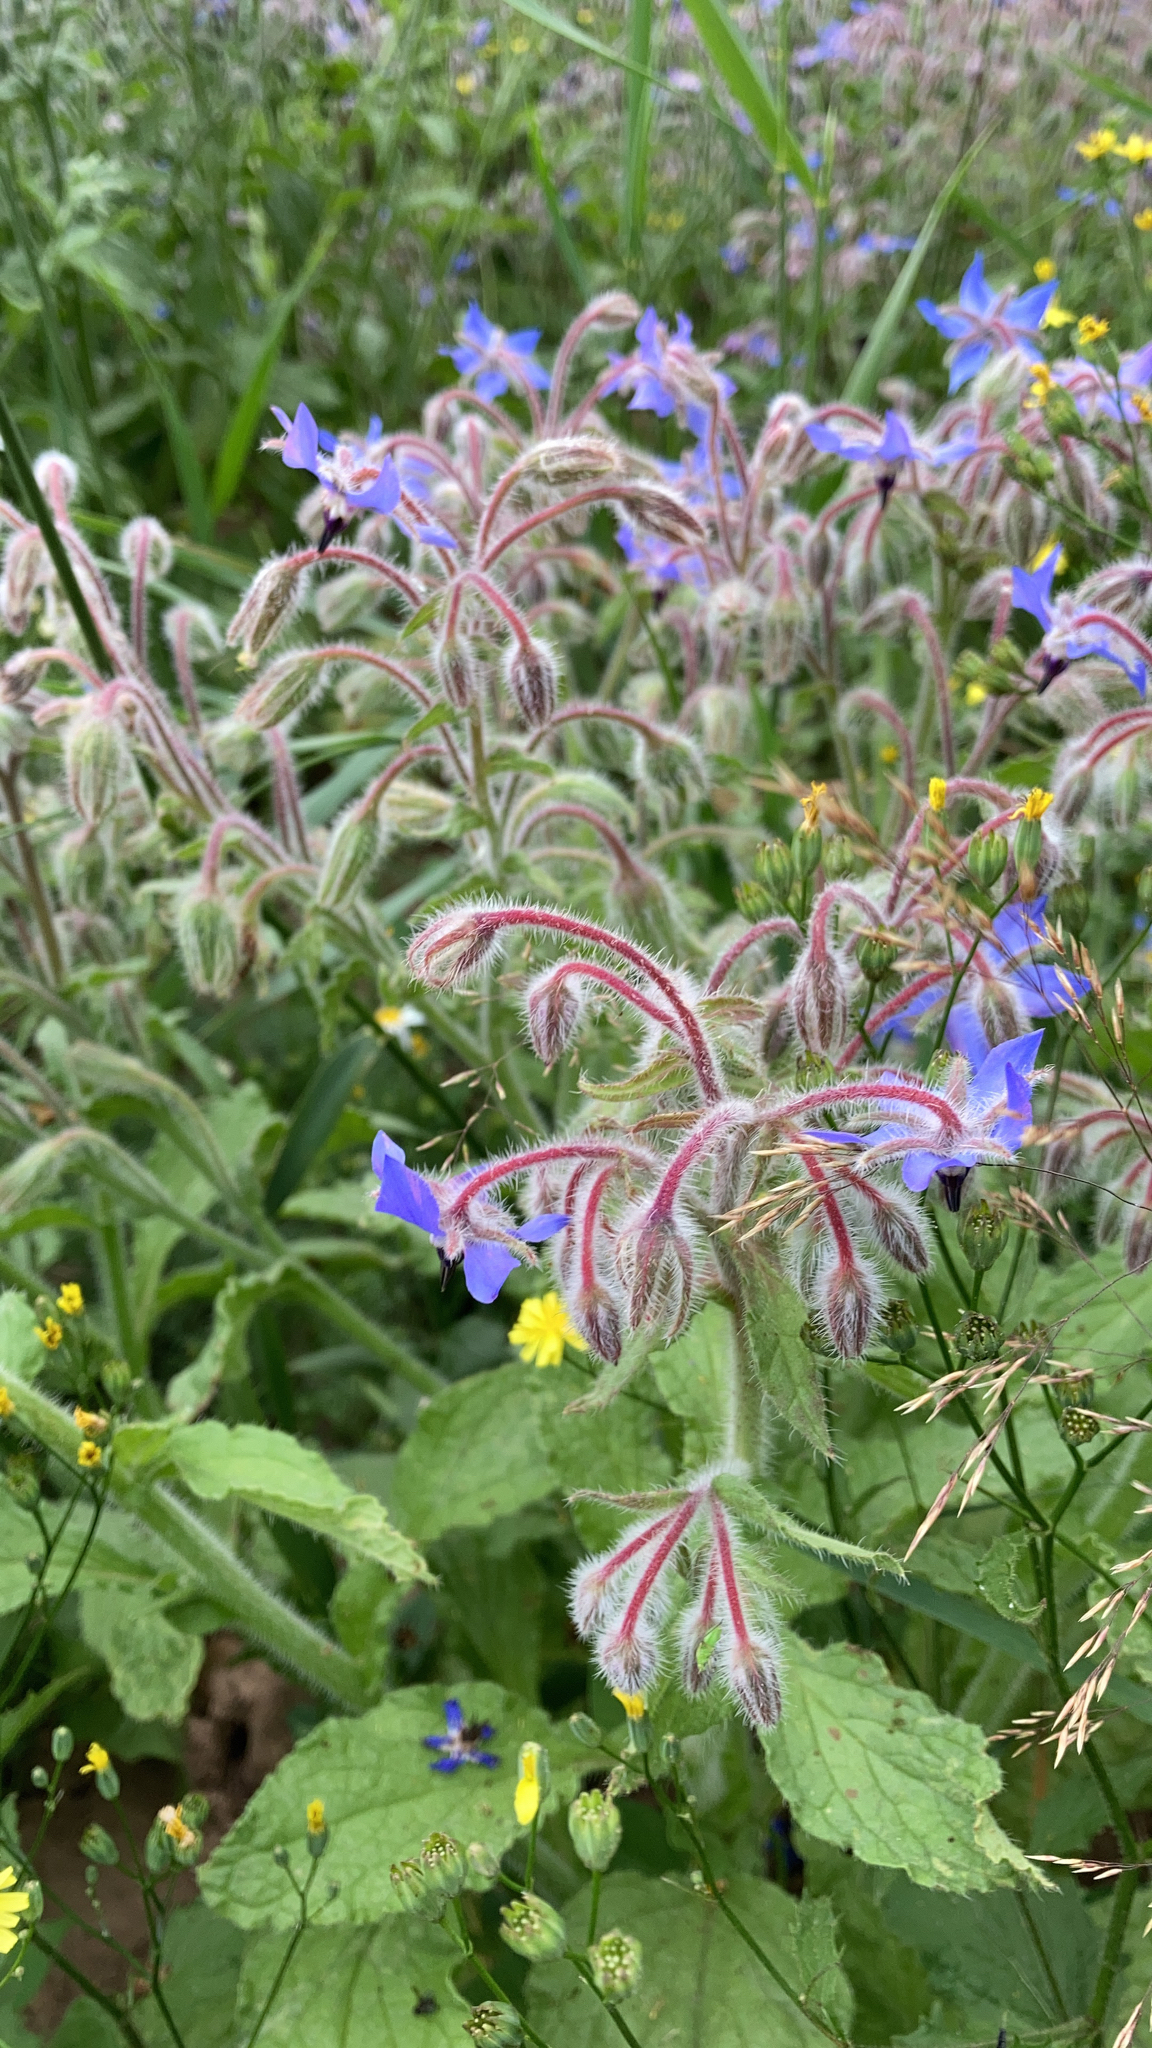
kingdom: Plantae
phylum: Tracheophyta
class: Magnoliopsida
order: Boraginales
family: Boraginaceae
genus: Borago
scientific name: Borago officinalis
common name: Borage
